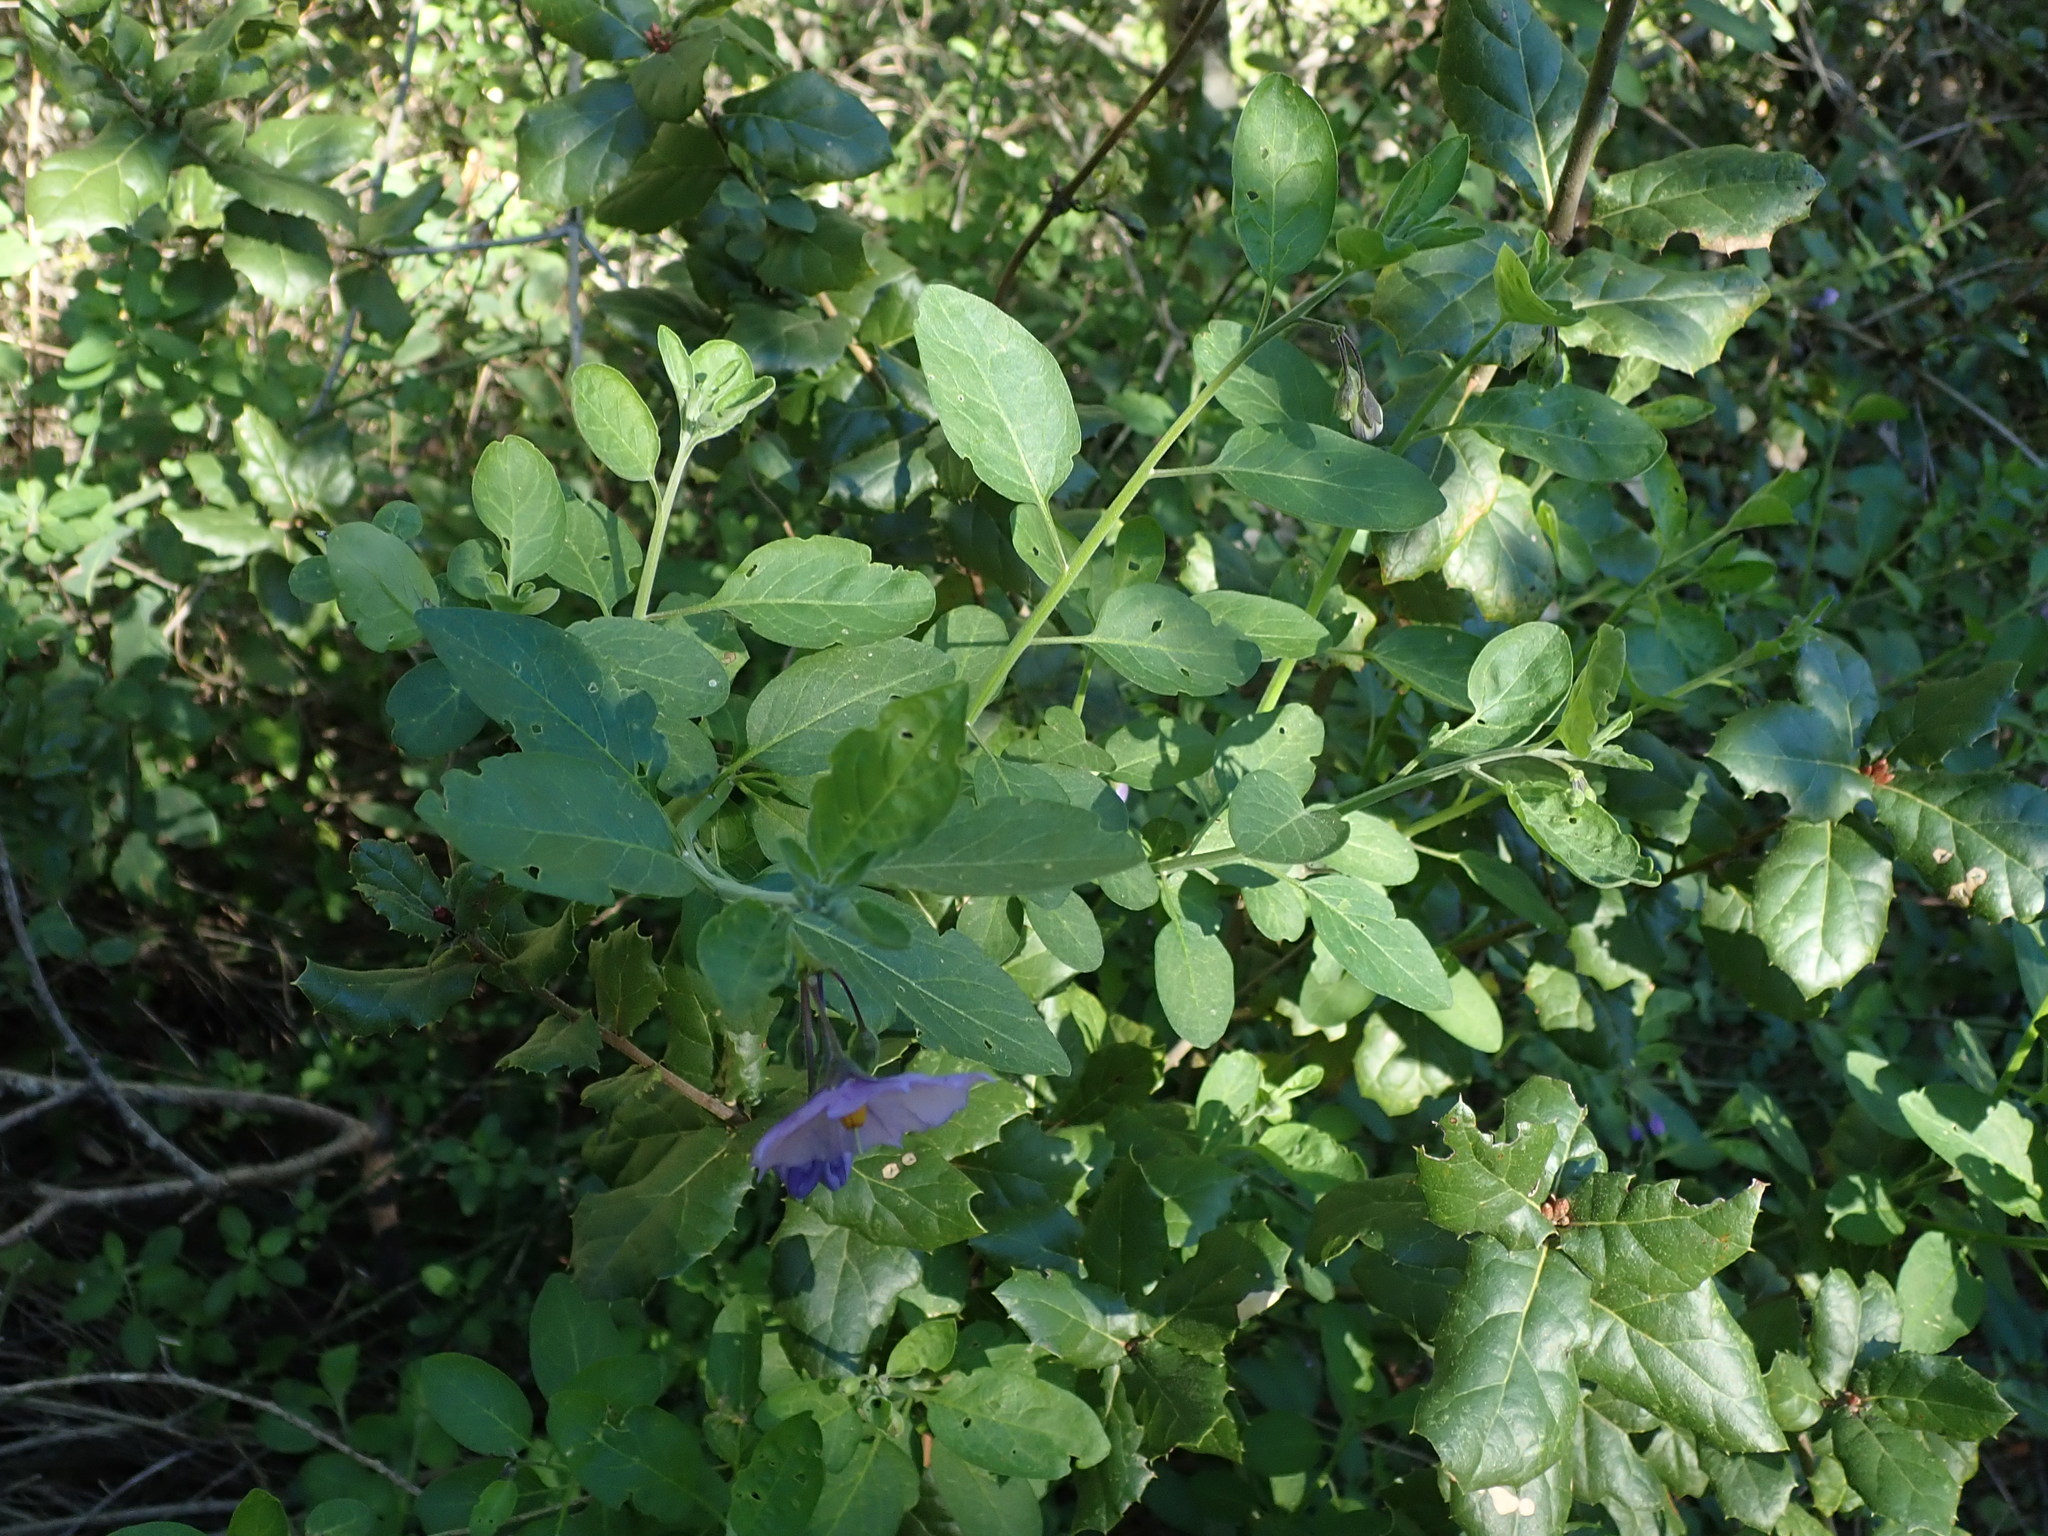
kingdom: Plantae
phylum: Tracheophyta
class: Magnoliopsida
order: Solanales
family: Solanaceae
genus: Solanum
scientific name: Solanum umbelliferum
